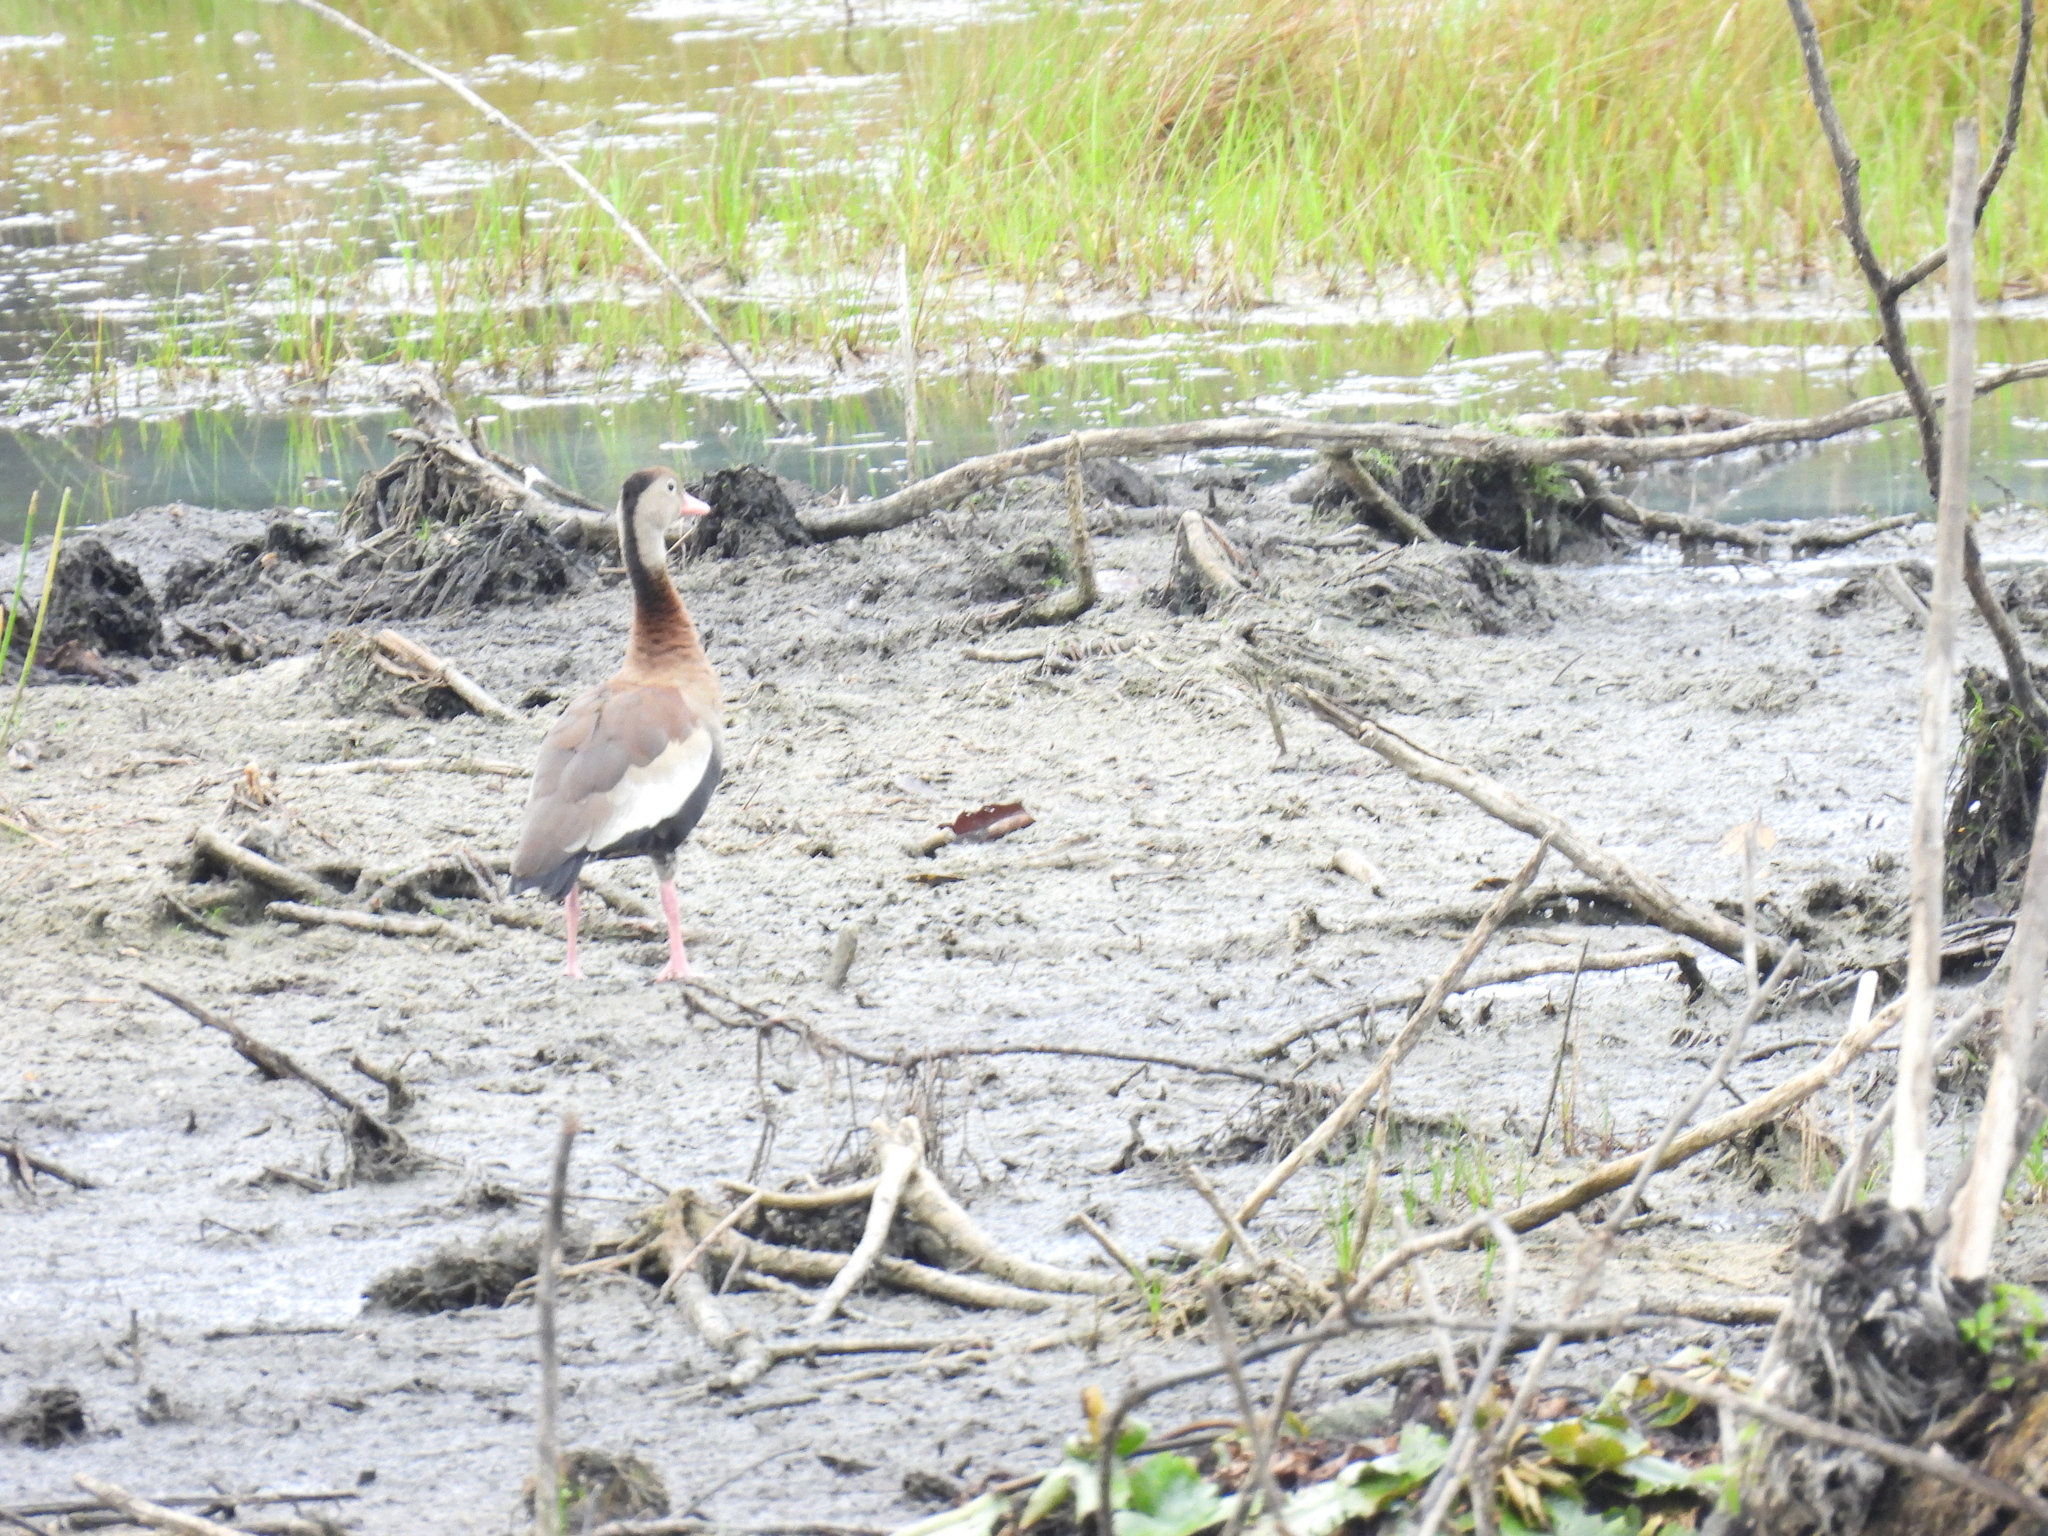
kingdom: Animalia
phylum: Chordata
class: Aves
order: Anseriformes
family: Anatidae
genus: Dendrocygna
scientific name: Dendrocygna autumnalis
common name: Black-bellied whistling duck
